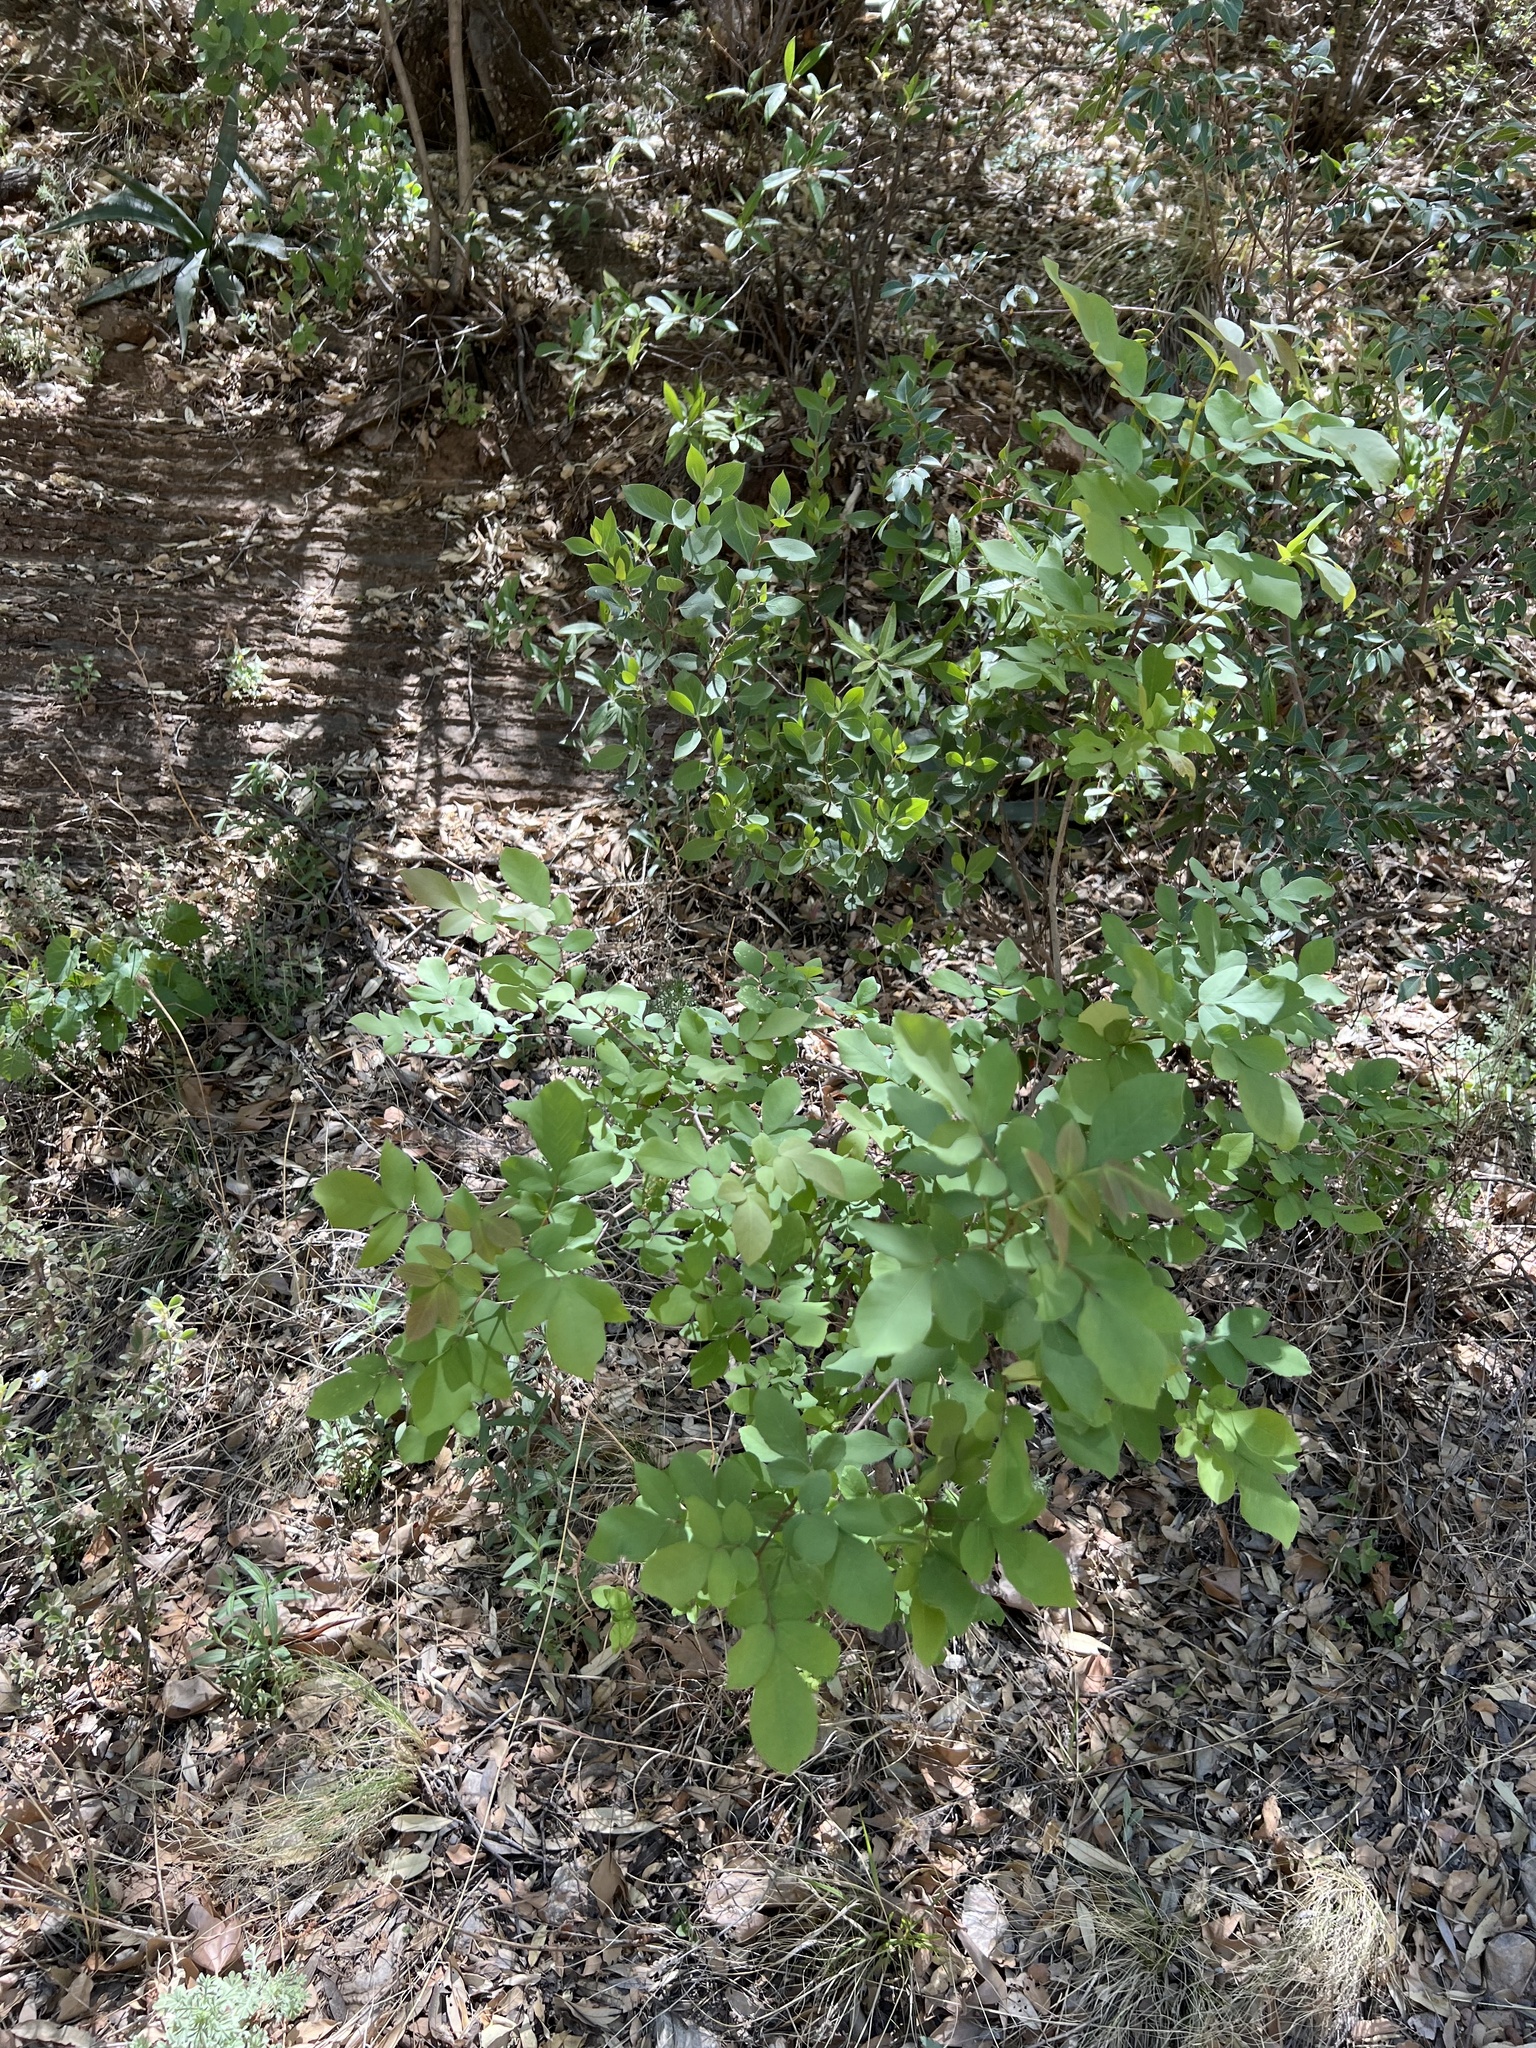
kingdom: Plantae
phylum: Tracheophyta
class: Magnoliopsida
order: Lamiales
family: Oleaceae
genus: Fraxinus
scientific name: Fraxinus velutina
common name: Arizon ash
